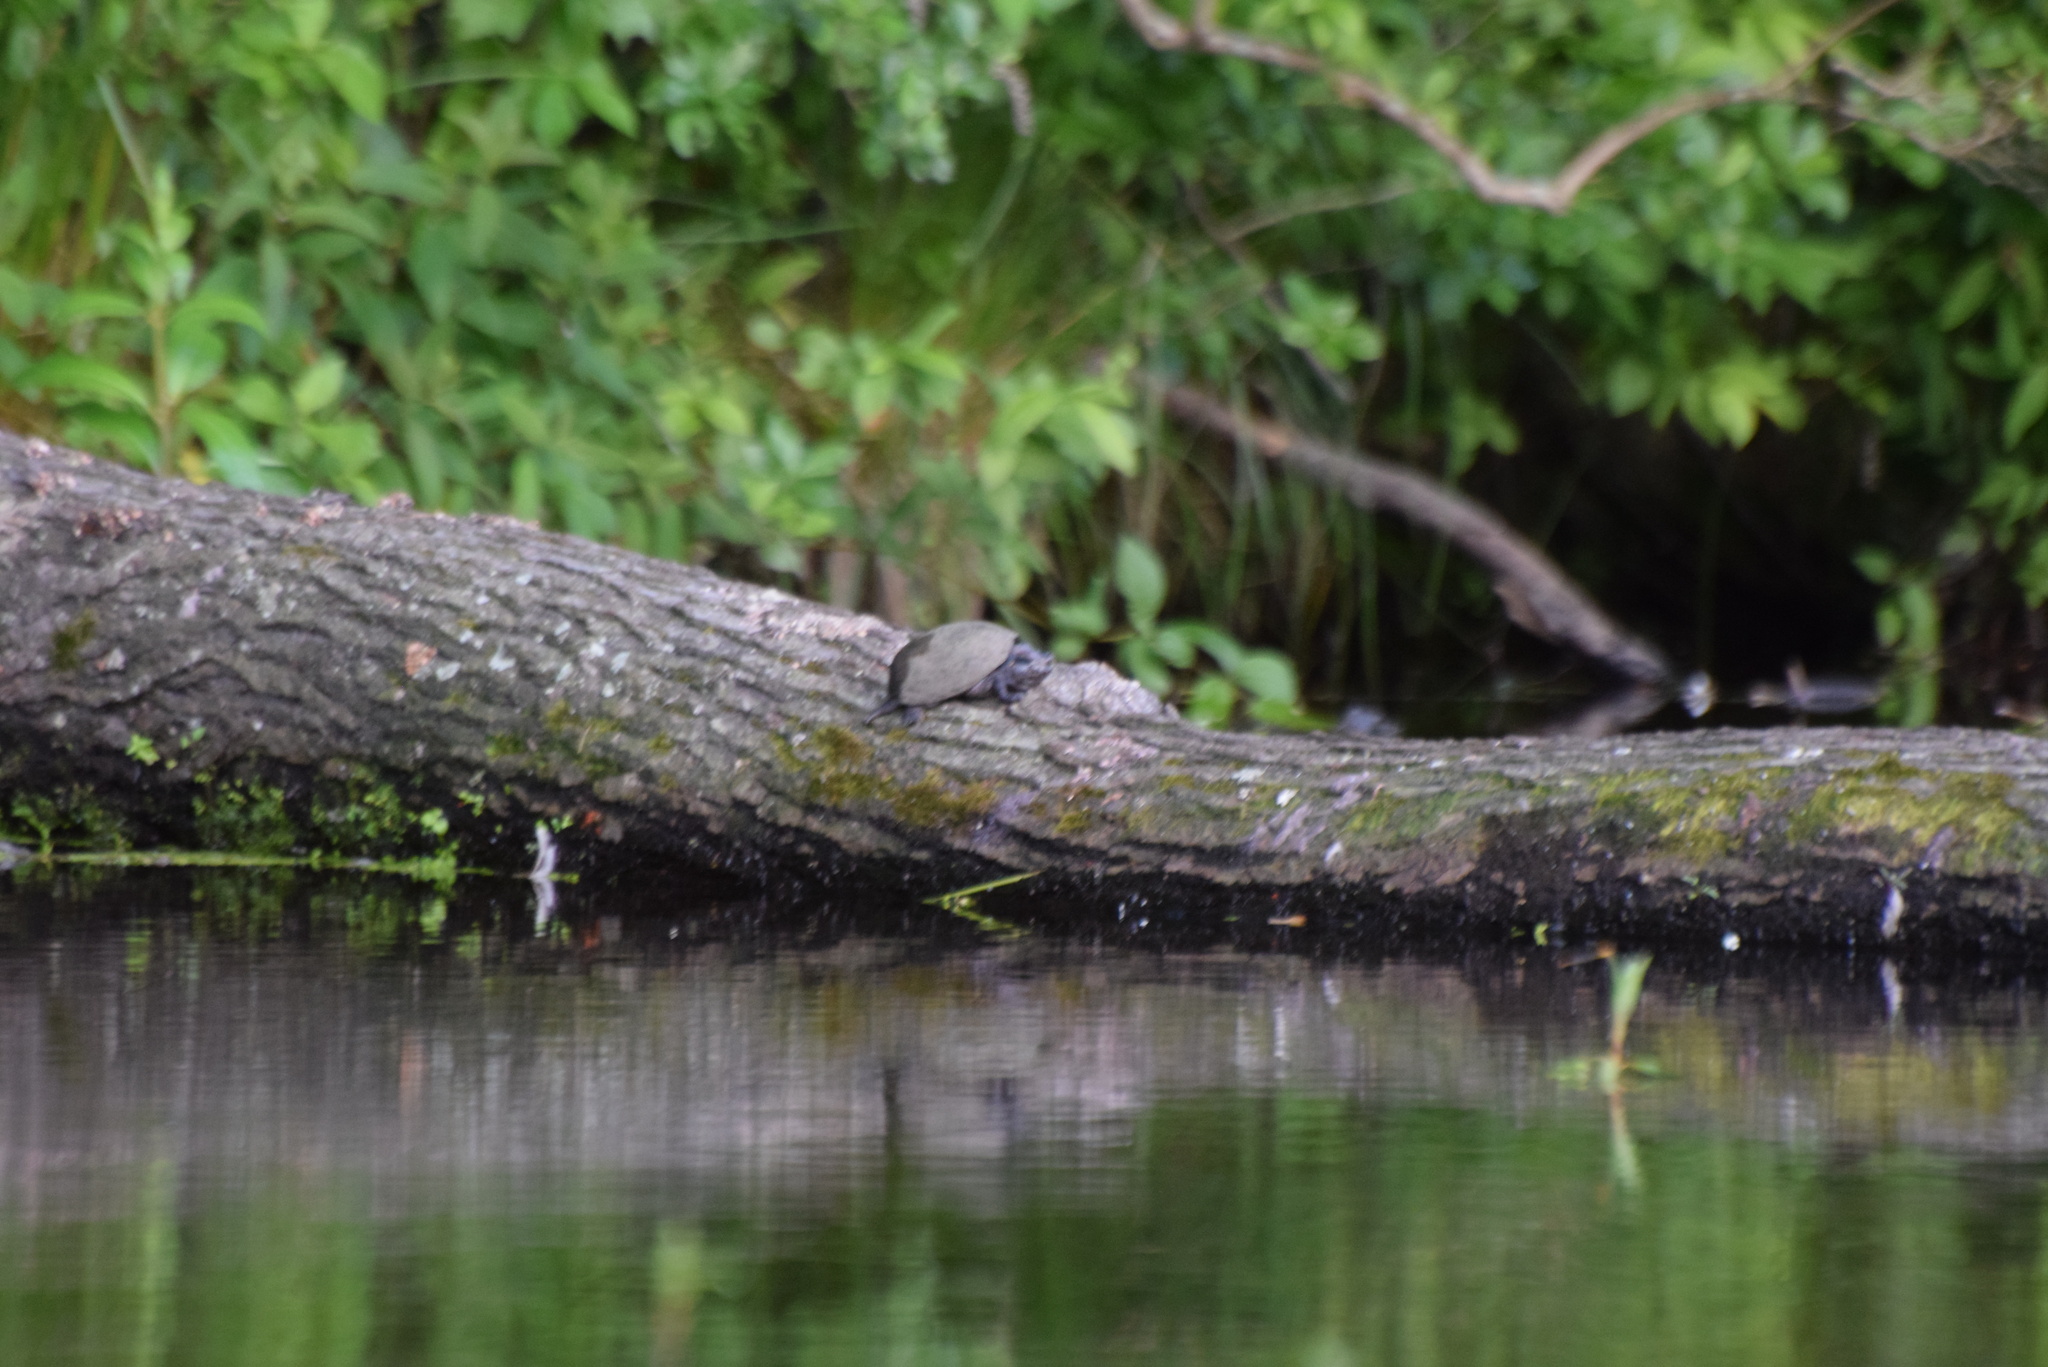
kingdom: Animalia
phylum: Chordata
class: Testudines
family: Kinosternidae
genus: Sternotherus
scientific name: Sternotherus odoratus
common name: Common musk turtle
